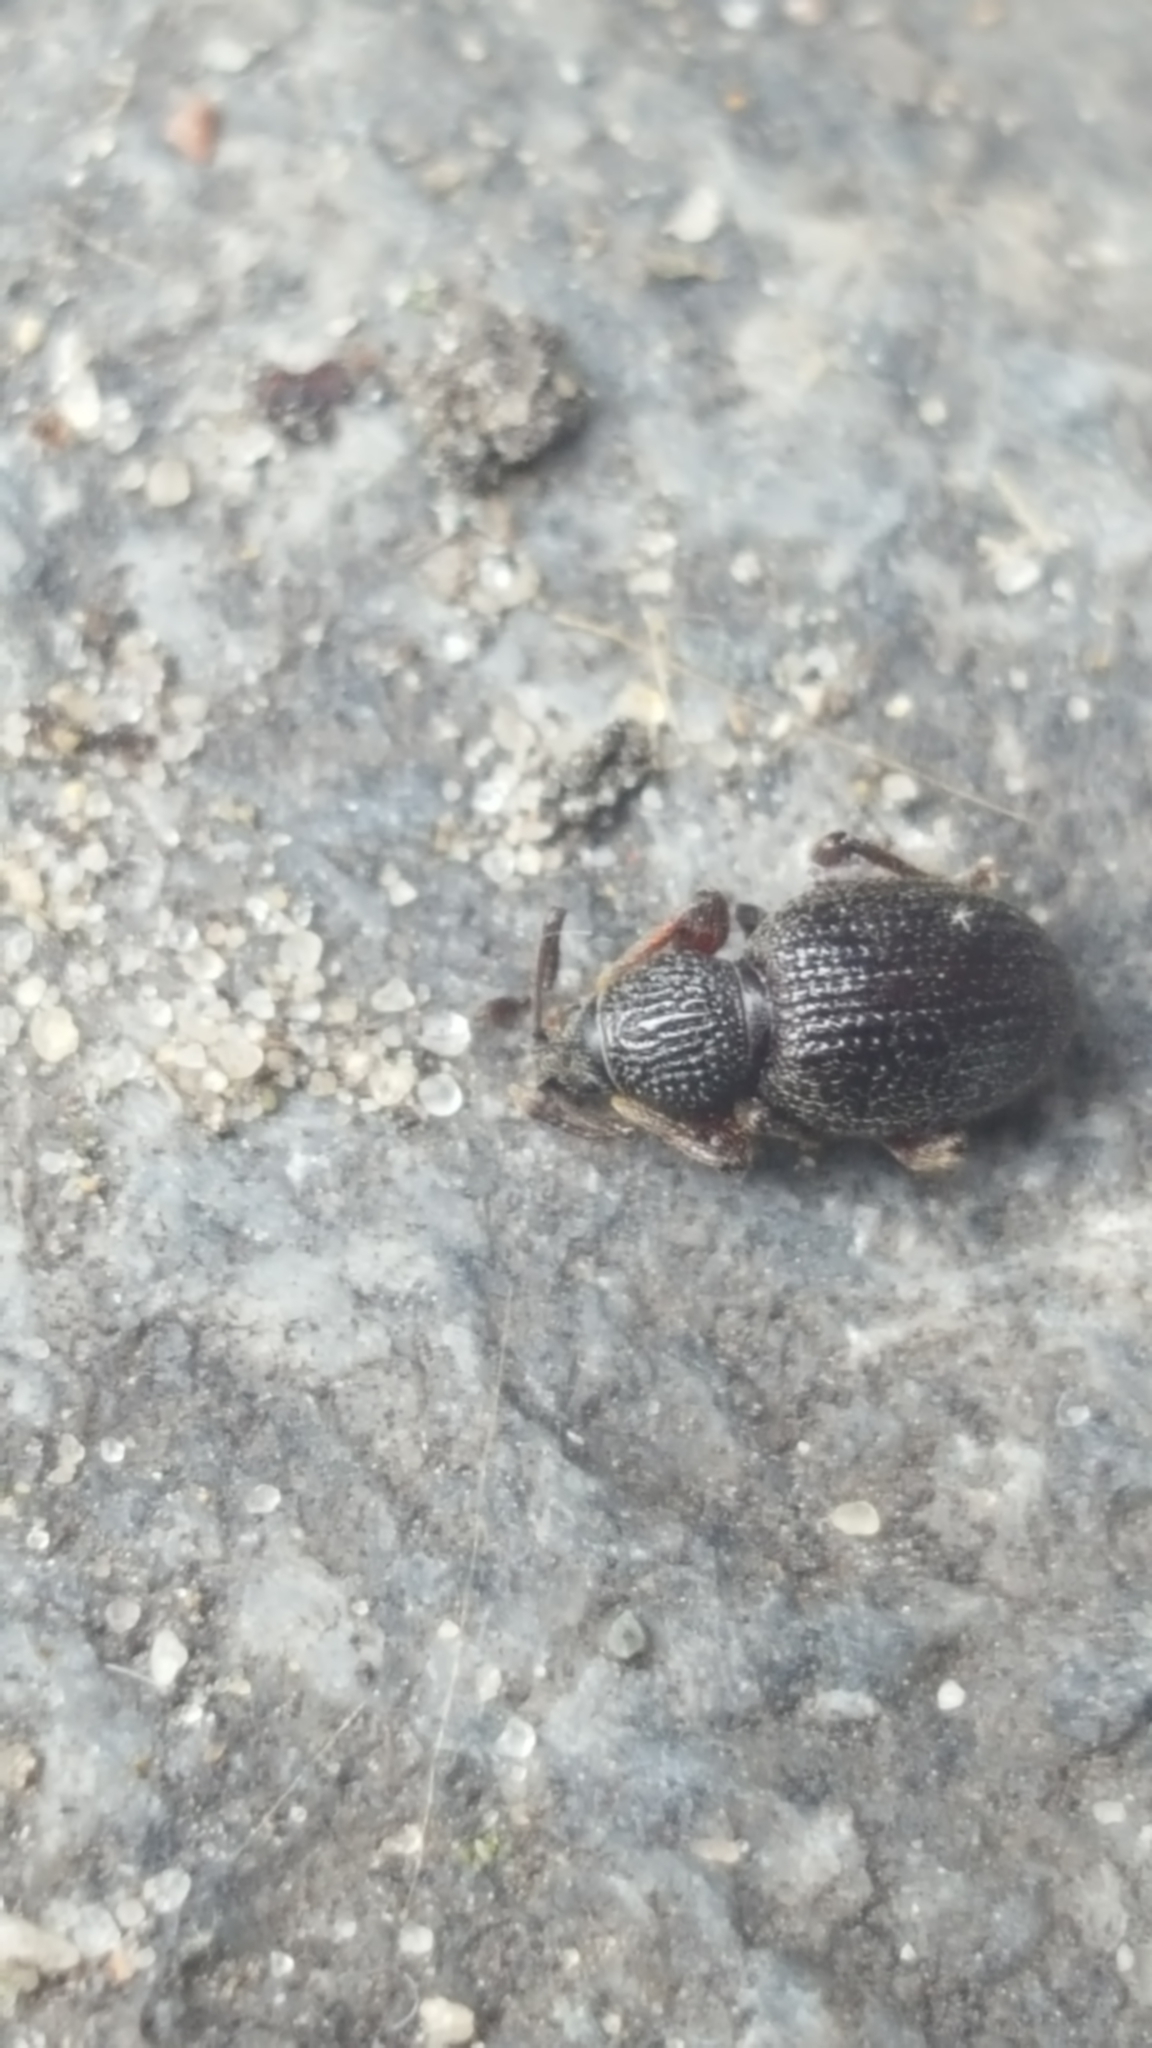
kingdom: Animalia
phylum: Arthropoda
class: Insecta
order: Coleoptera
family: Curculionidae
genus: Otiorhynchus
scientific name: Otiorhynchus ovatus
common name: Strawberry root weevil
